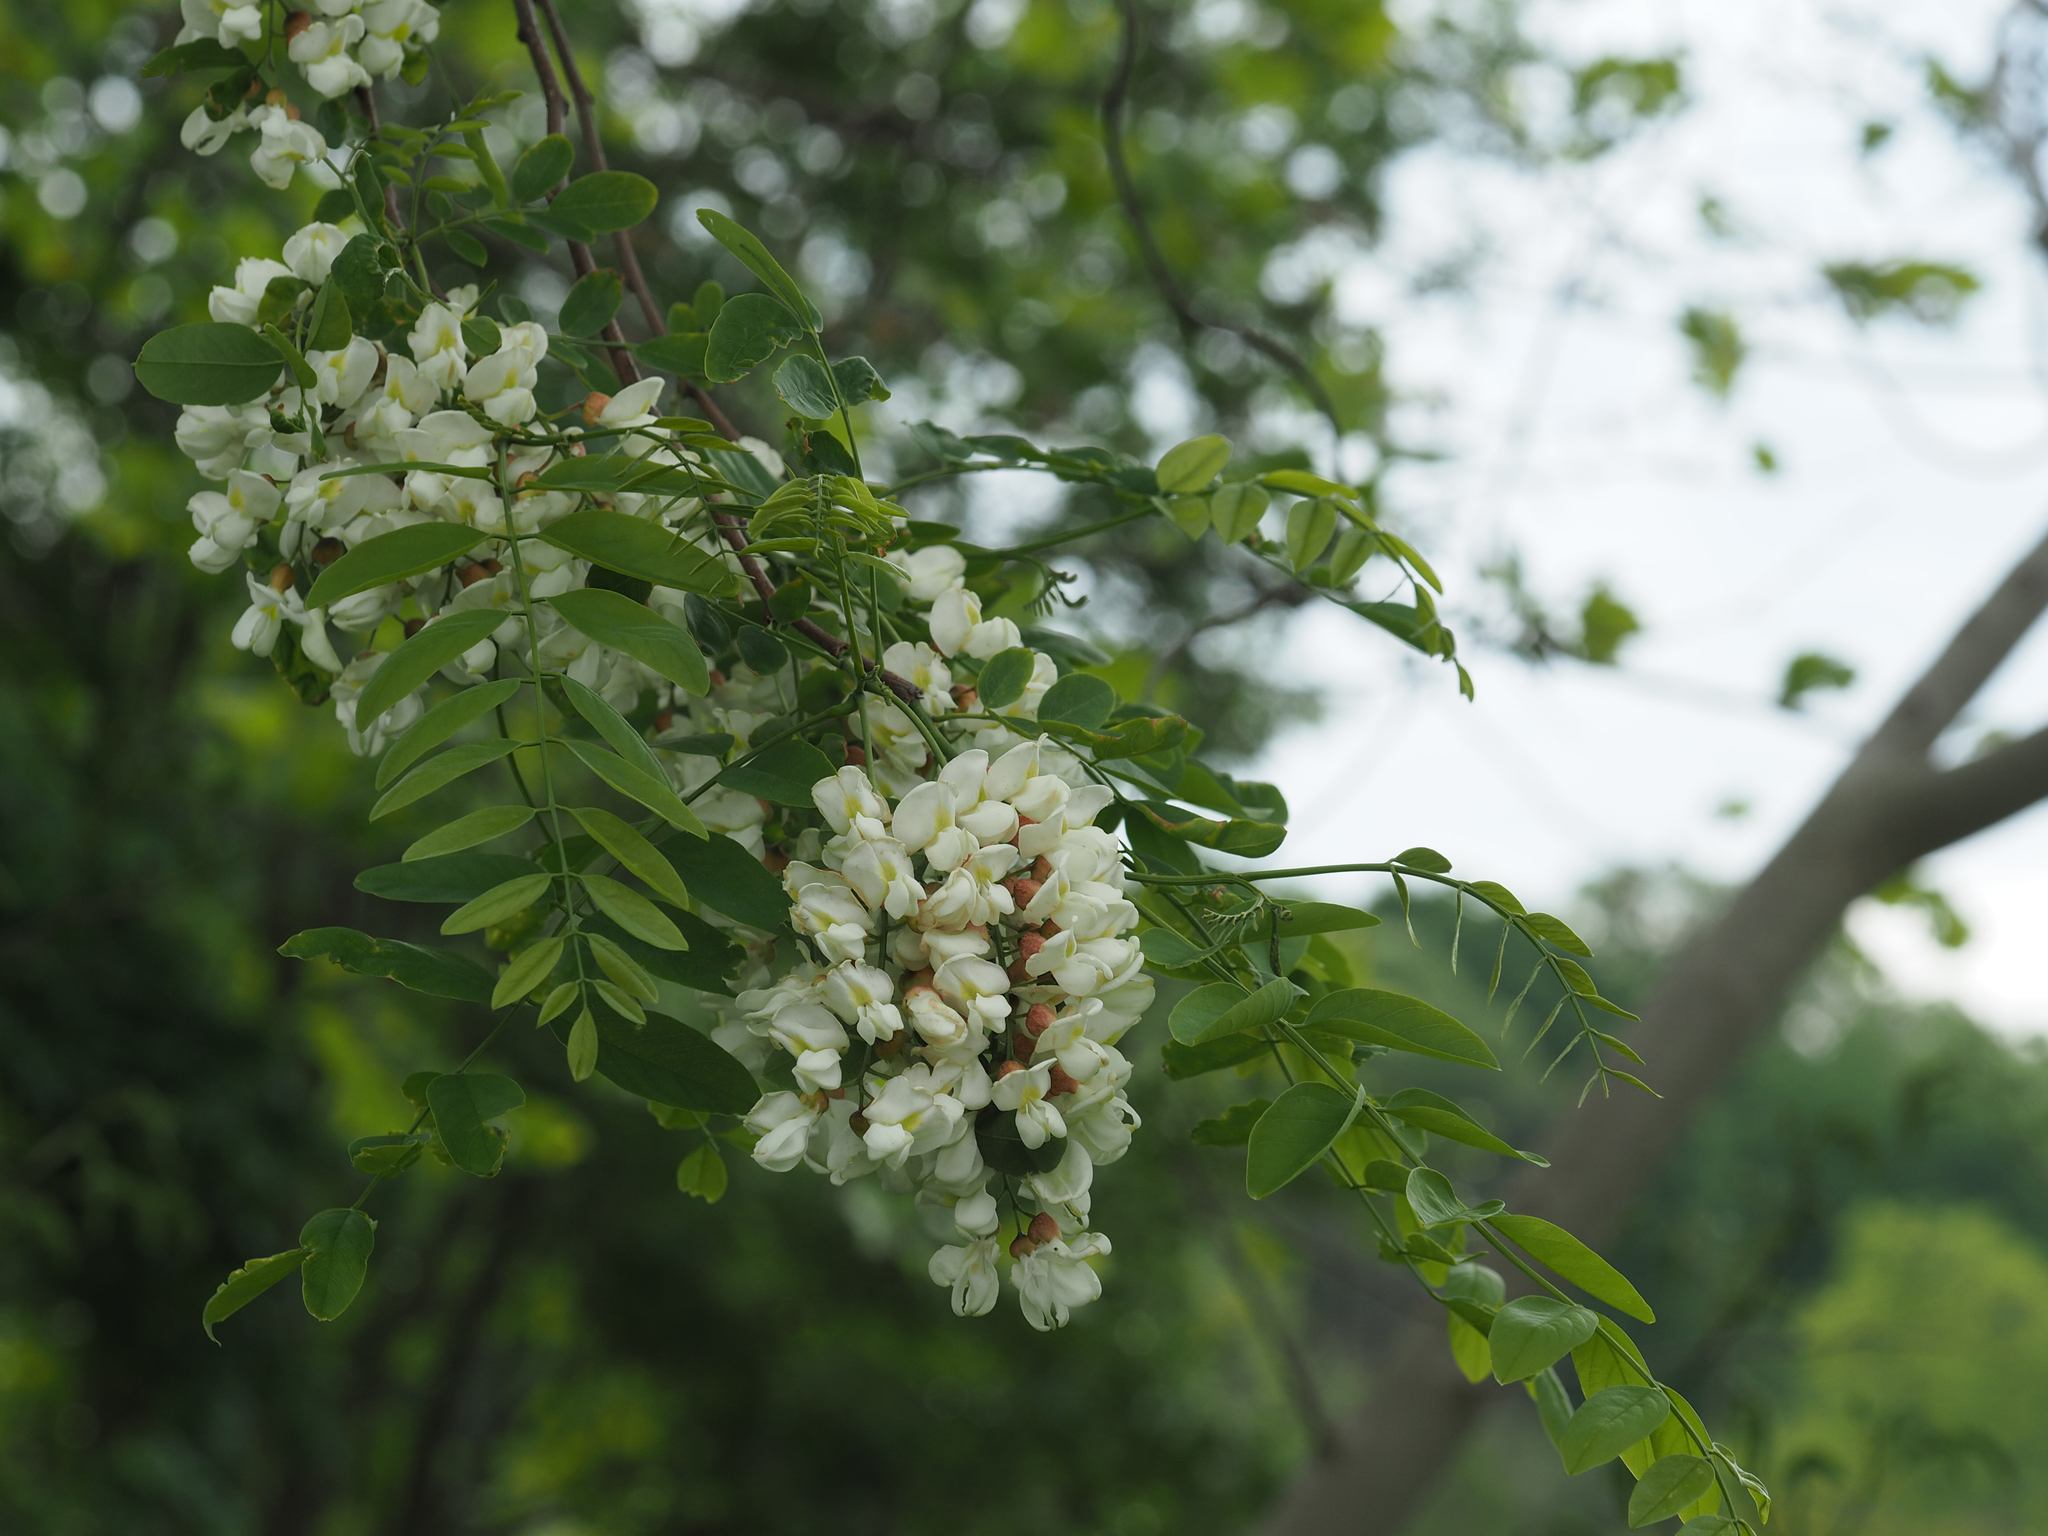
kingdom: Plantae
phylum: Tracheophyta
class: Magnoliopsida
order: Fabales
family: Fabaceae
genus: Robinia
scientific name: Robinia pseudoacacia
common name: Black locust
